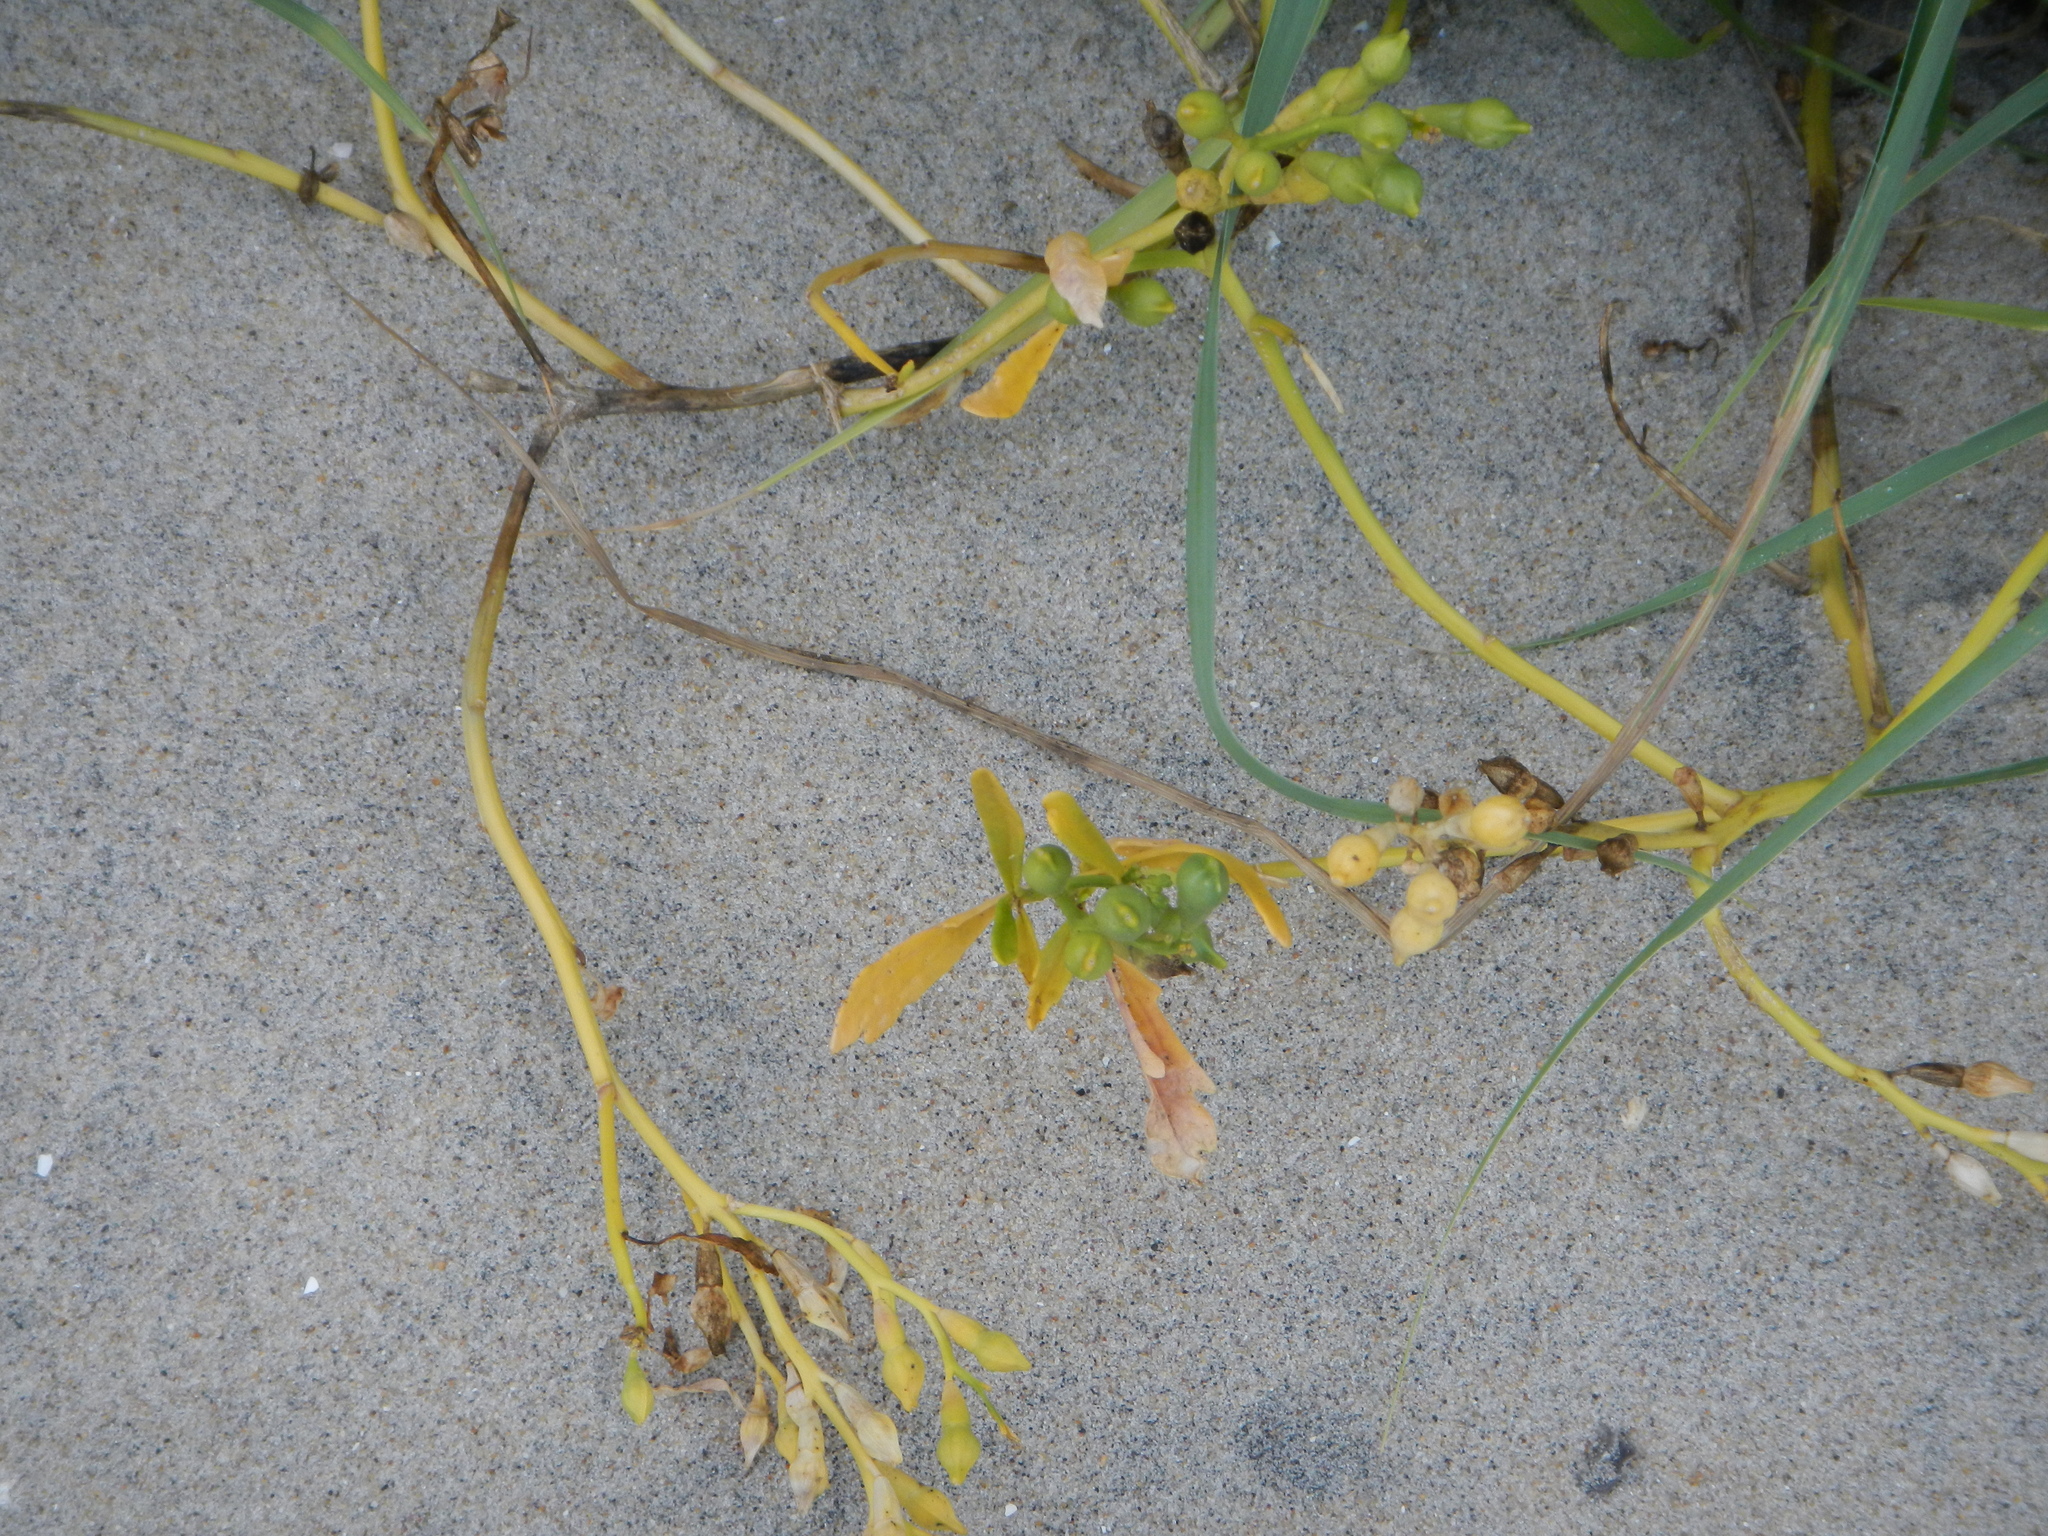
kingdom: Plantae
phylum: Tracheophyta
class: Magnoliopsida
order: Brassicales
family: Brassicaceae
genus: Cakile
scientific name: Cakile edentula
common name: American sea rocket
